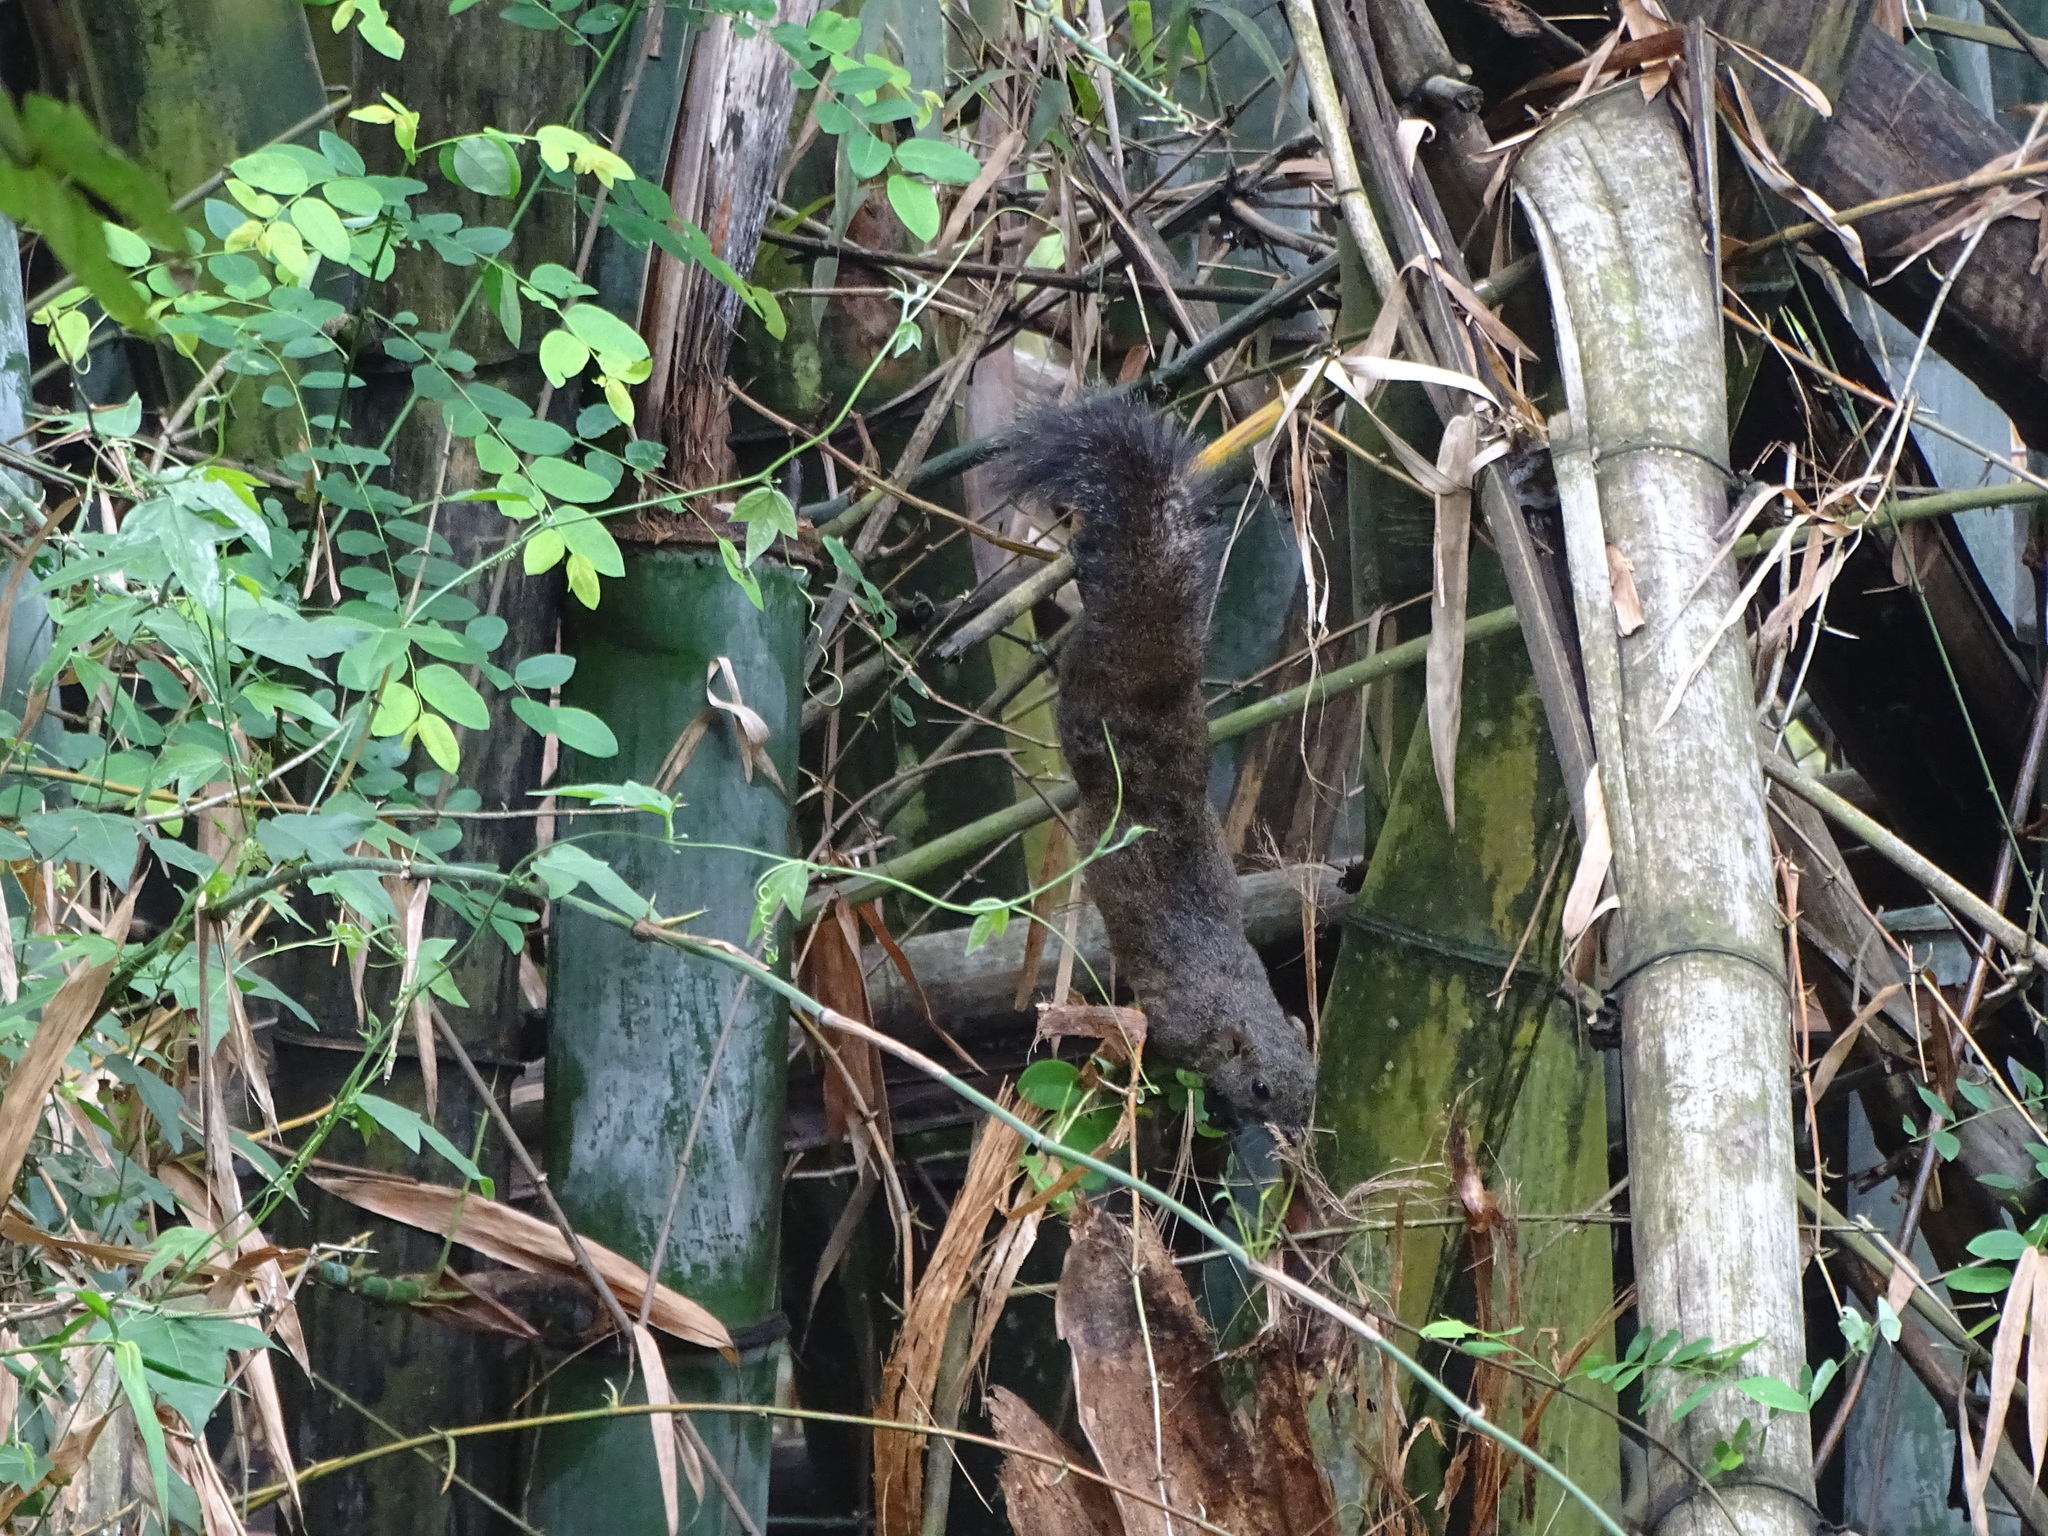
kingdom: Animalia
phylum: Chordata
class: Mammalia
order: Rodentia
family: Sciuridae
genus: Callosciurus
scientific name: Callosciurus erythraeus
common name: Pallas's squirrel
